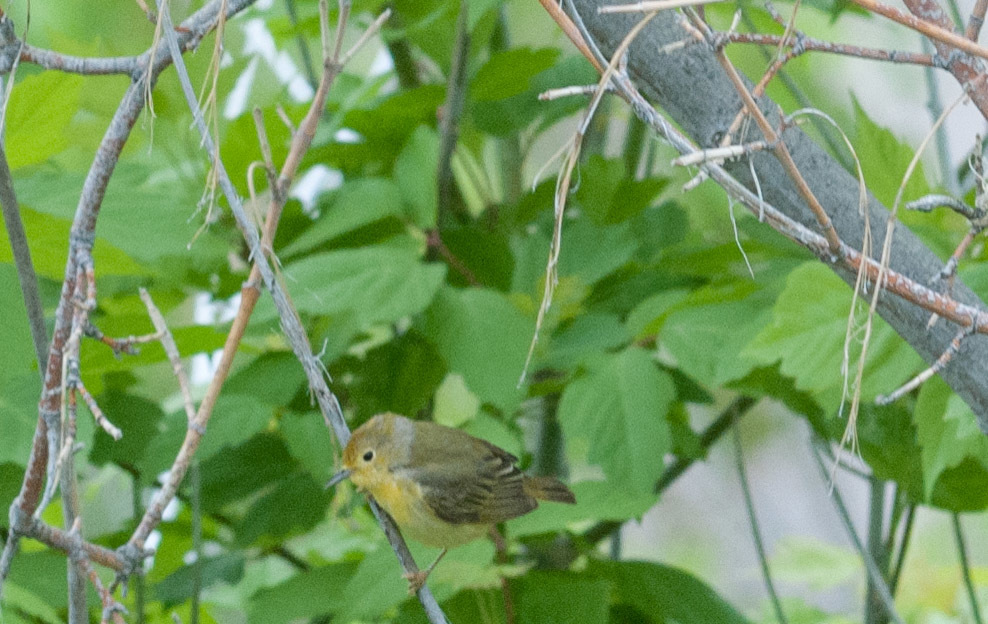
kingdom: Animalia
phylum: Chordata
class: Aves
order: Passeriformes
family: Parulidae
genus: Setophaga
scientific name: Setophaga petechia
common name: Yellow warbler
